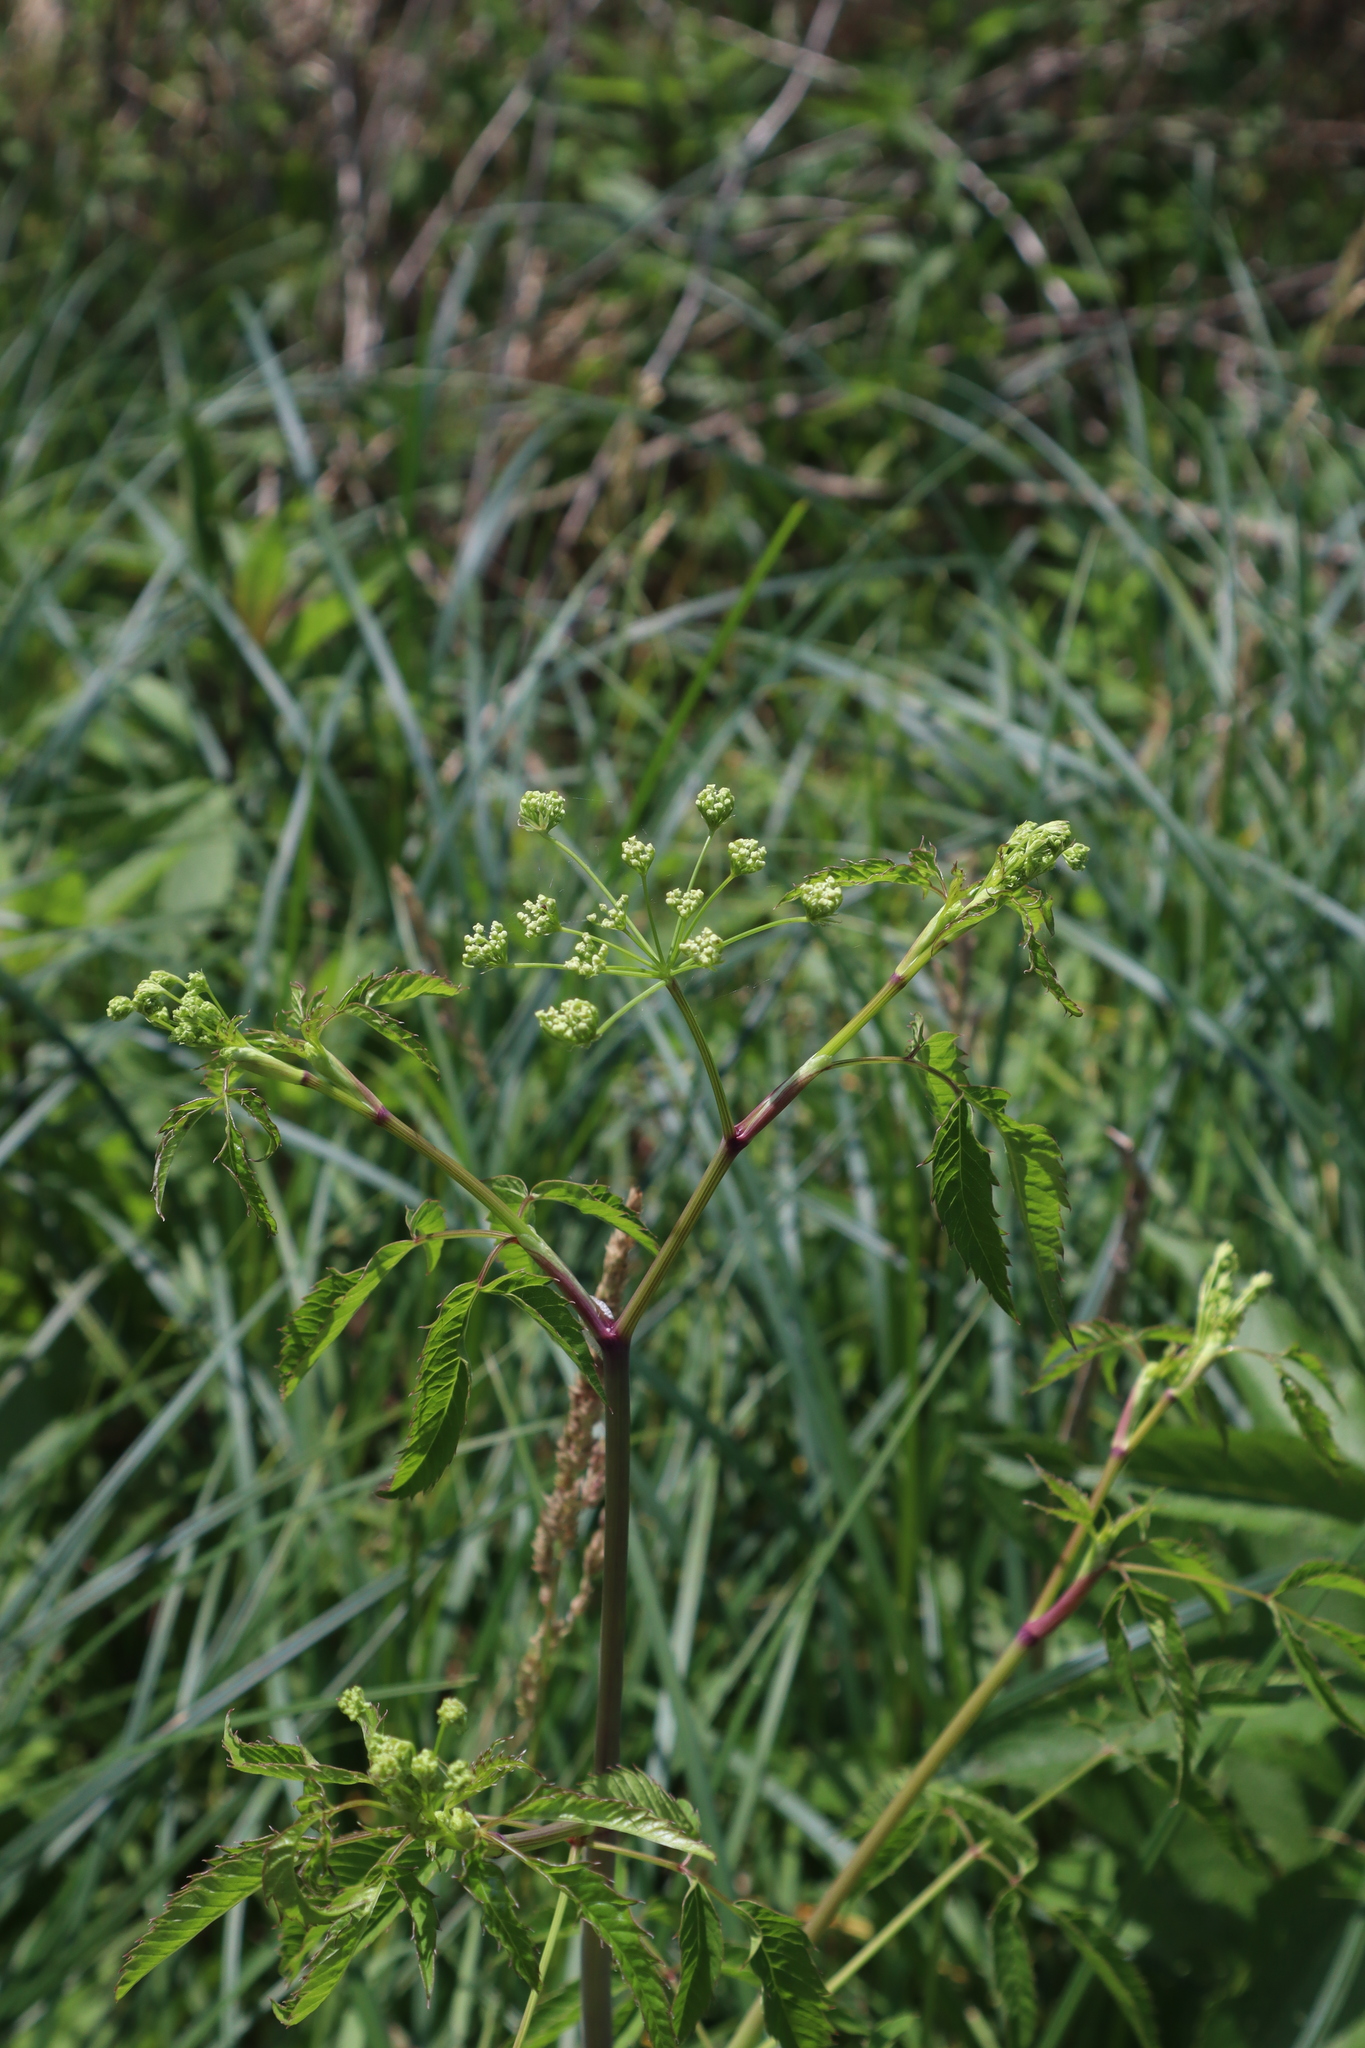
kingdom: Plantae
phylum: Tracheophyta
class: Magnoliopsida
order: Apiales
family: Apiaceae
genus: Cicuta
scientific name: Cicuta maculata
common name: Spotted cowbane
